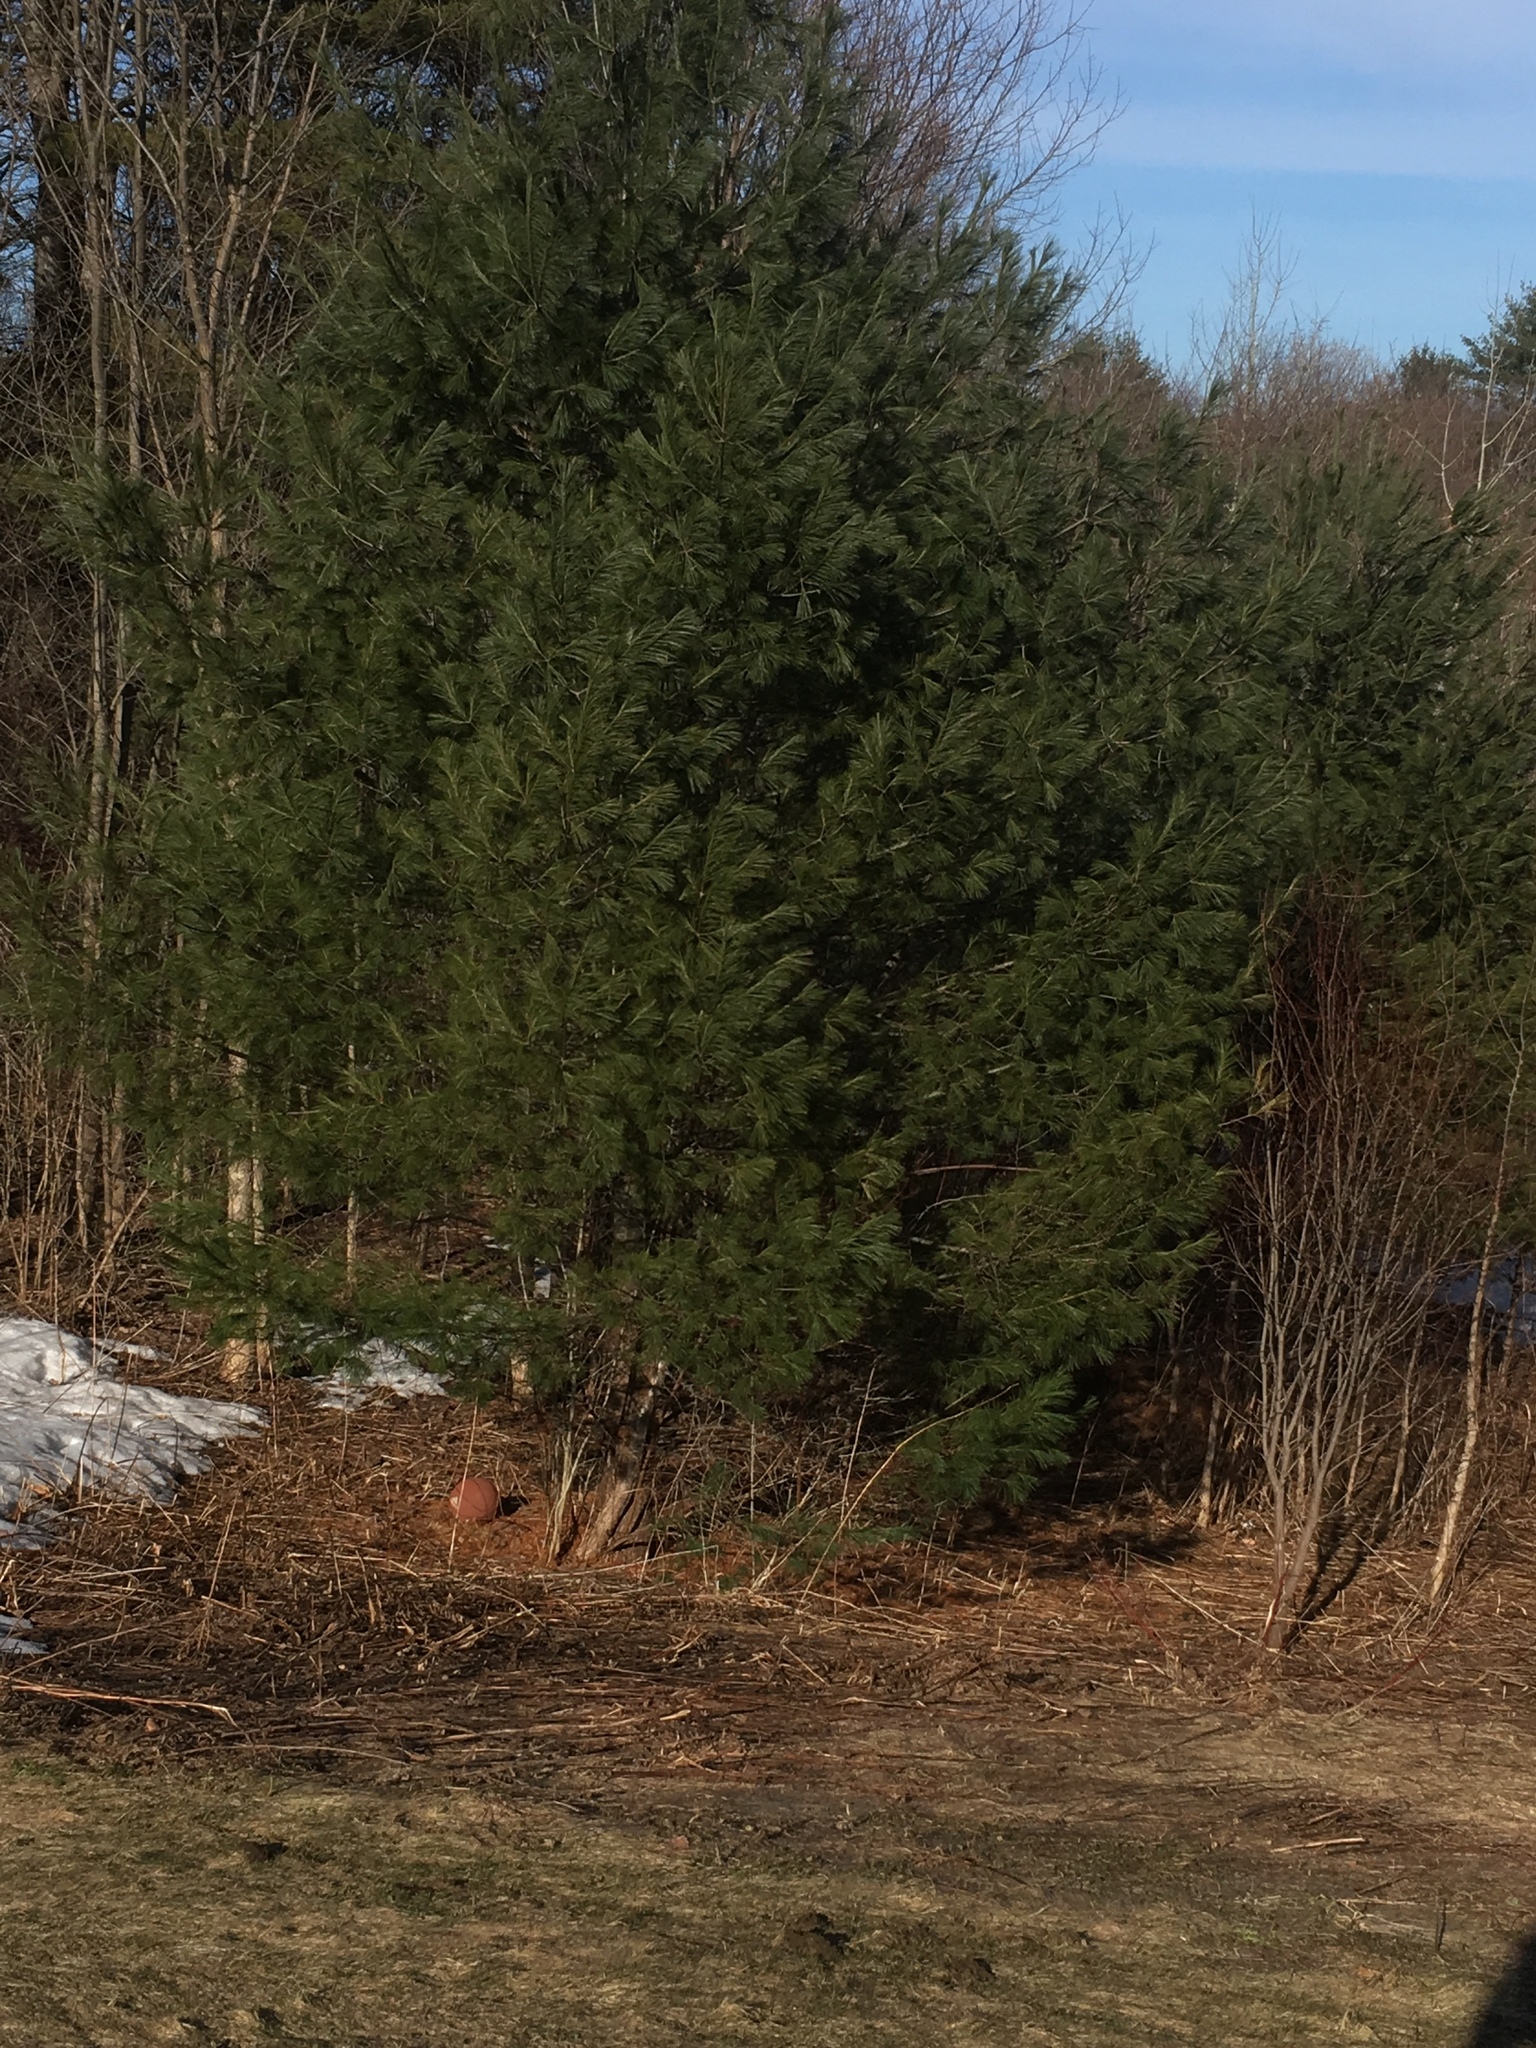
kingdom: Plantae
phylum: Tracheophyta
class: Pinopsida
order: Pinales
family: Pinaceae
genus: Pinus
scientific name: Pinus strobus
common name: Weymouth pine
